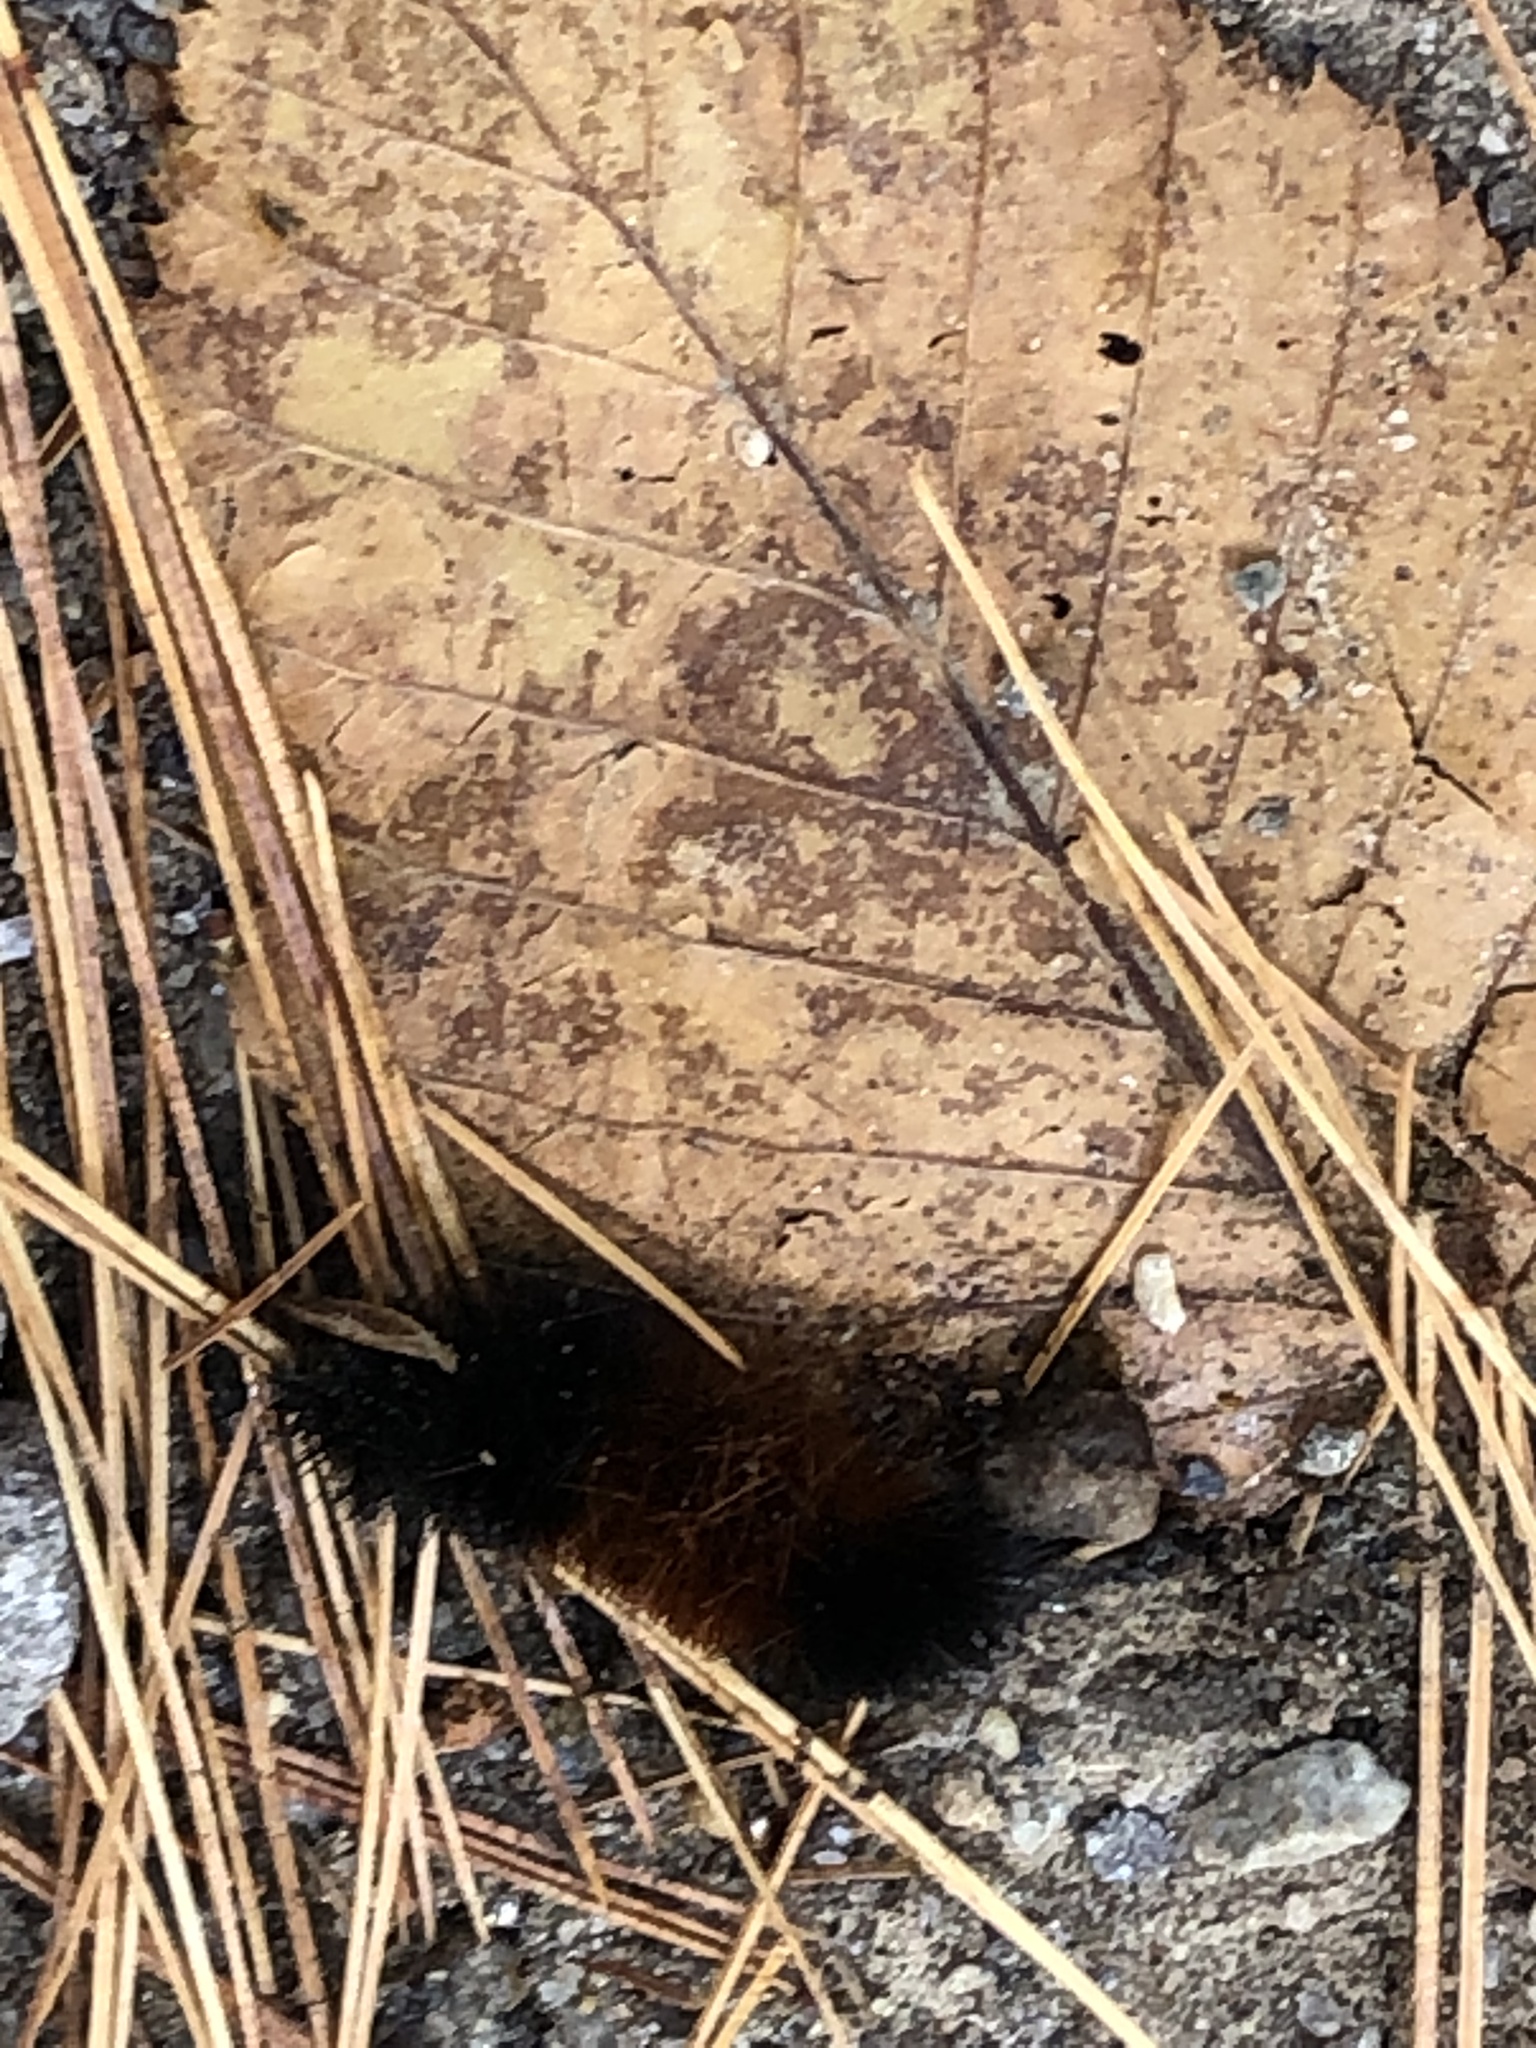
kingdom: Animalia
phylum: Arthropoda
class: Insecta
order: Lepidoptera
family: Erebidae
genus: Pyrrharctia
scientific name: Pyrrharctia isabella
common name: Isabella tiger moth
